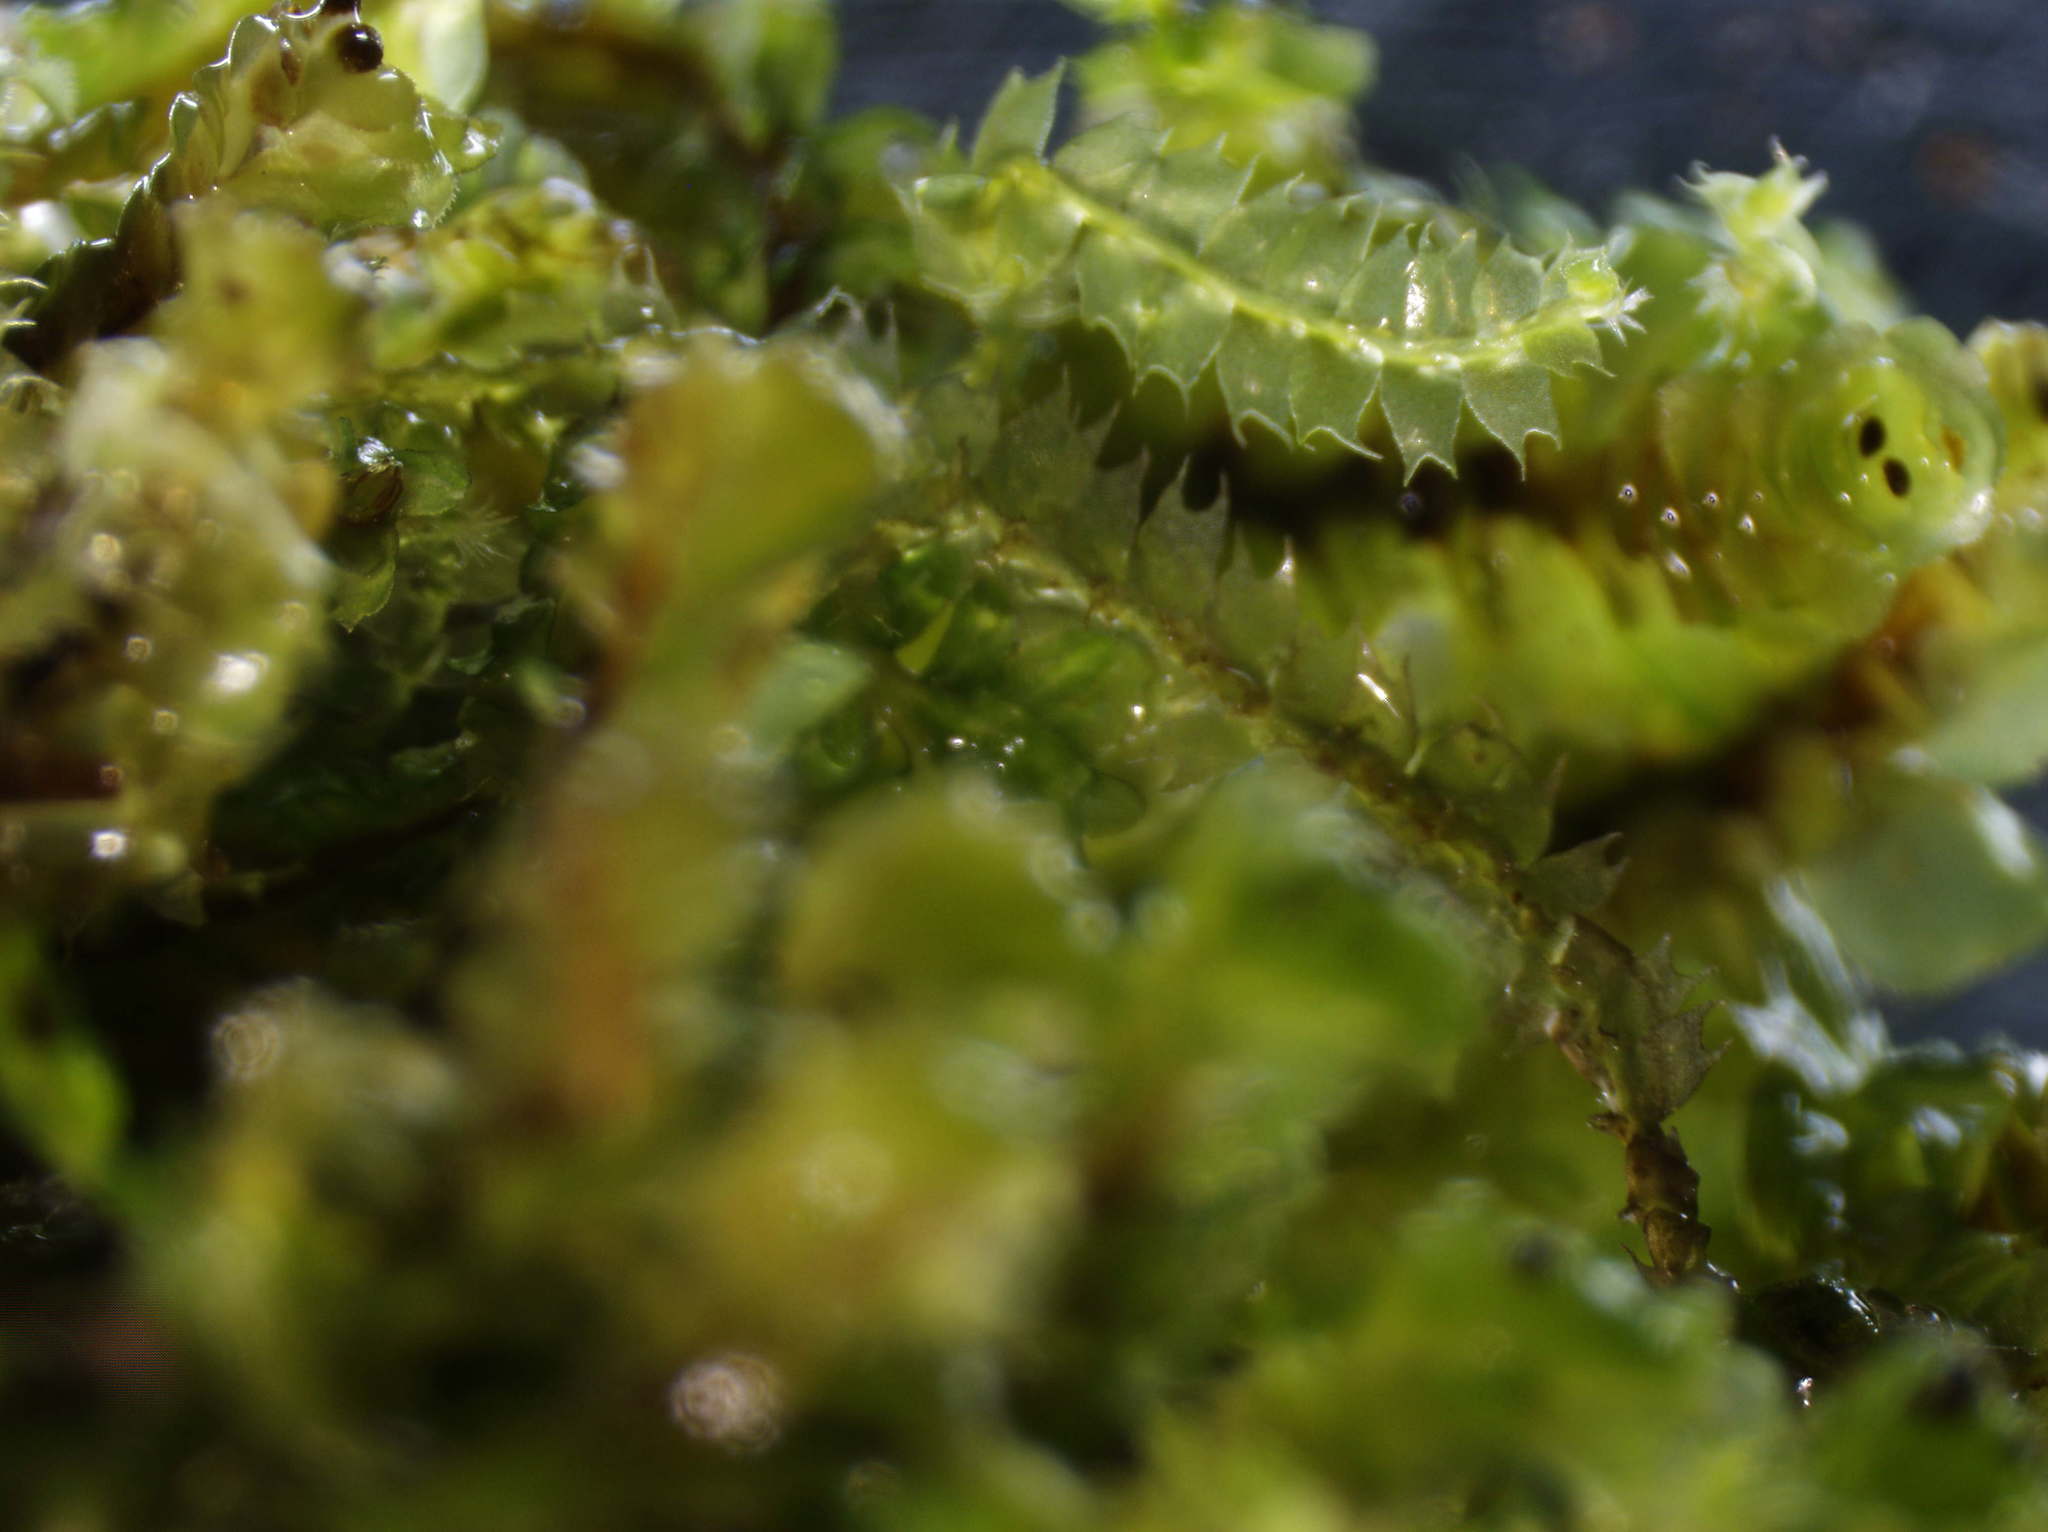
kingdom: Plantae
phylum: Marchantiophyta
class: Jungermanniopsida
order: Jungermanniales
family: Lophocoleaceae
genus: Lophocolea
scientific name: Lophocolea bidentata
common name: Bifid crestwort
